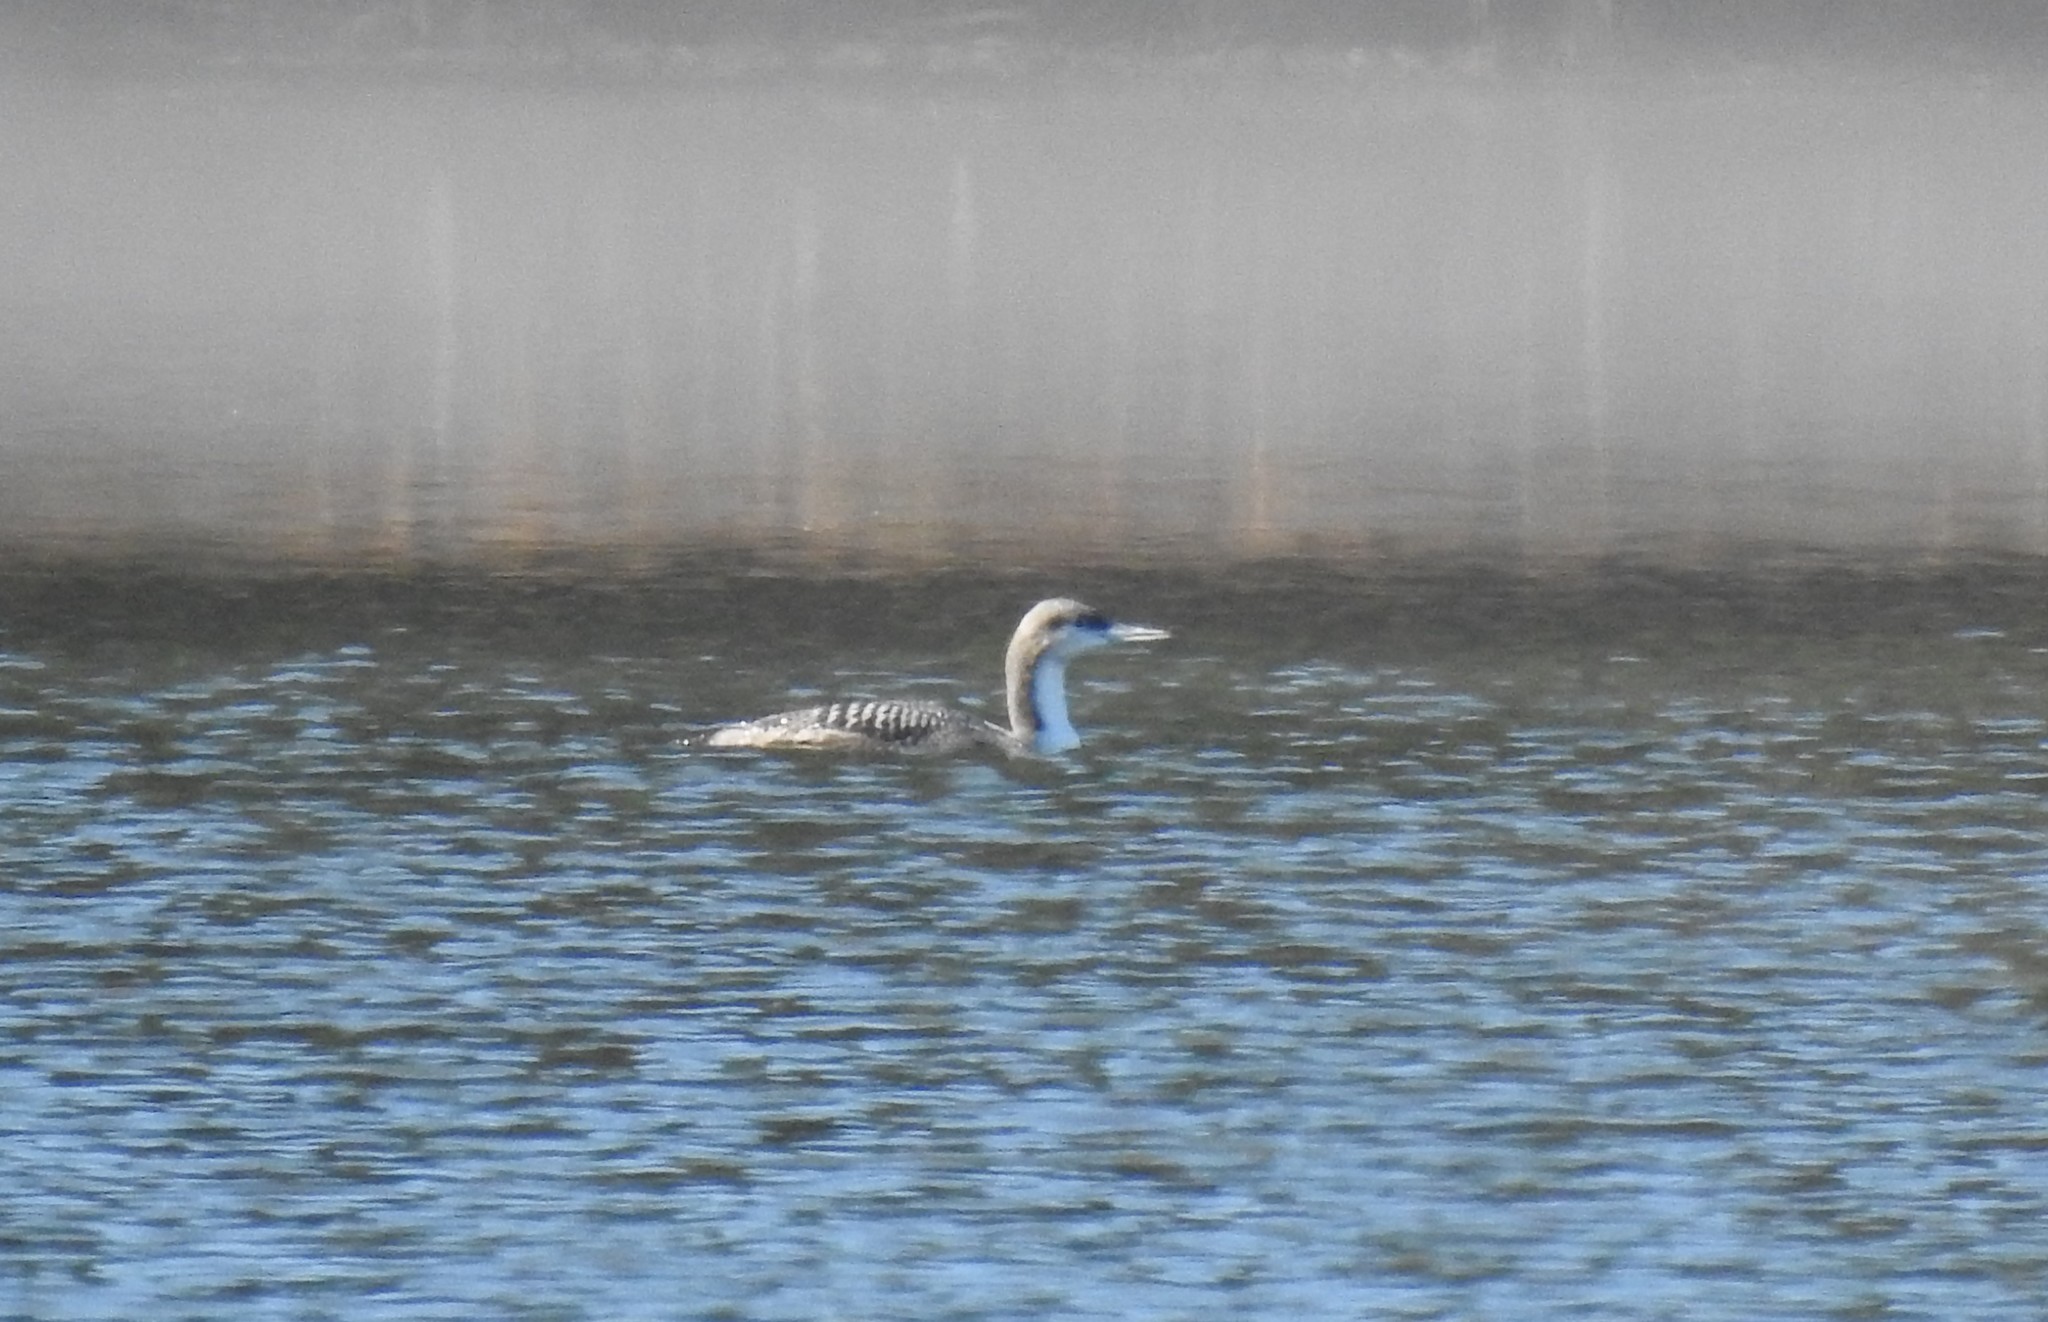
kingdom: Animalia
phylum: Chordata
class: Aves
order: Gaviiformes
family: Gaviidae
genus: Gavia
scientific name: Gavia pacifica
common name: Pacific loon
